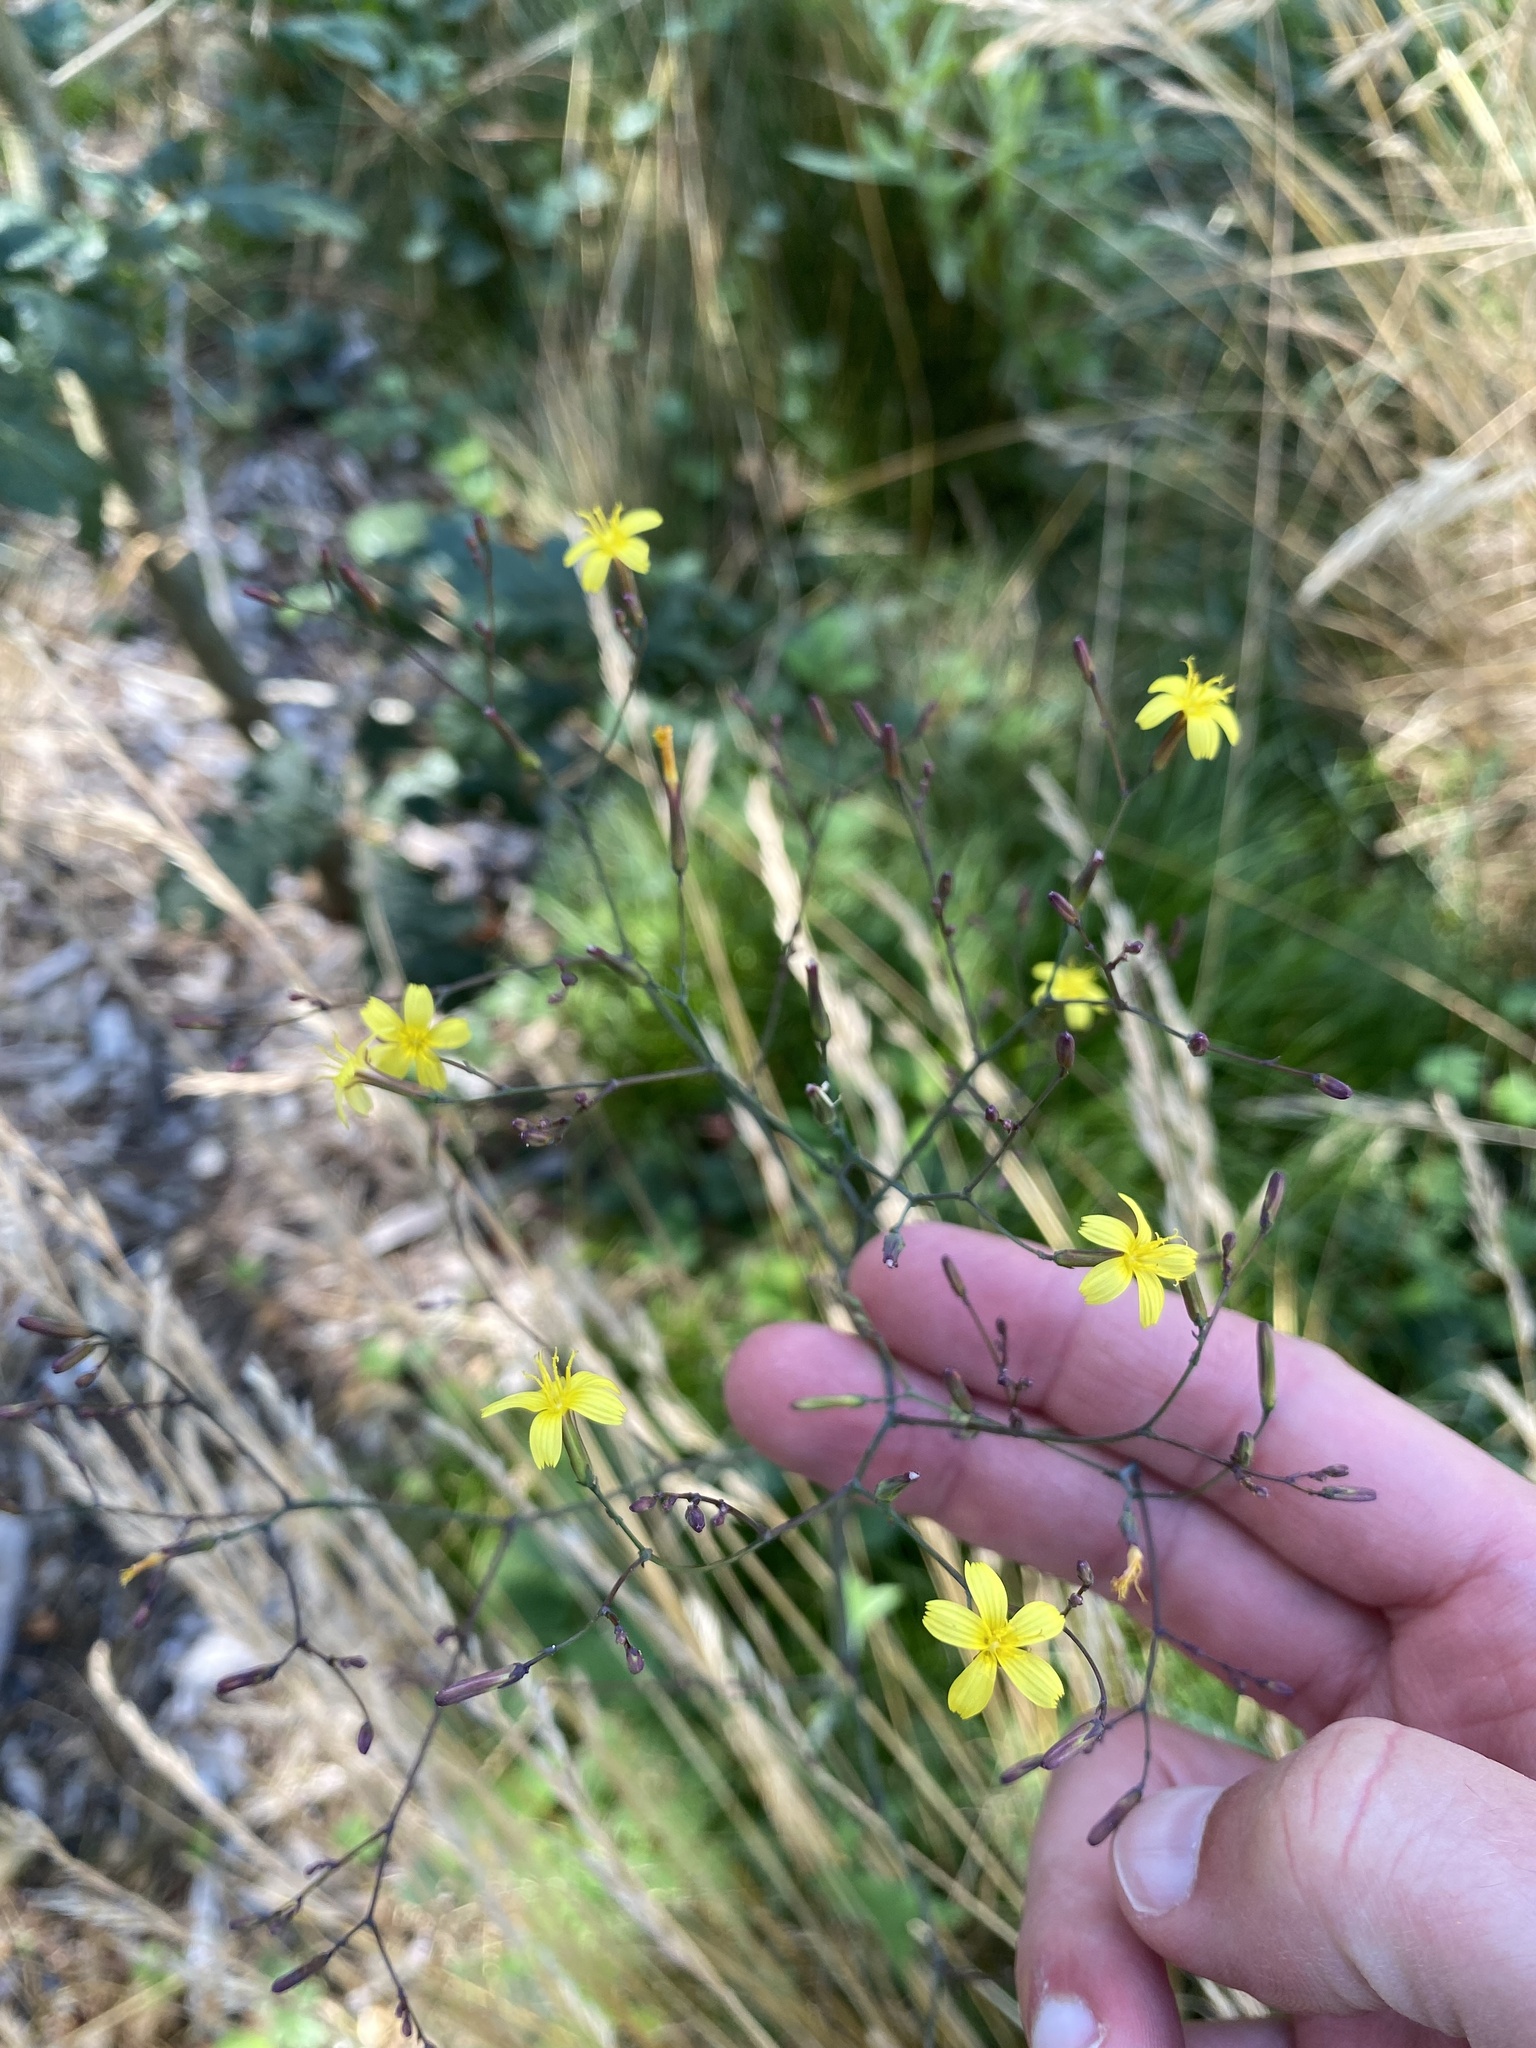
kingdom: Plantae
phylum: Tracheophyta
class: Magnoliopsida
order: Asterales
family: Asteraceae
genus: Mycelis
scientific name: Mycelis muralis
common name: Wall lettuce
